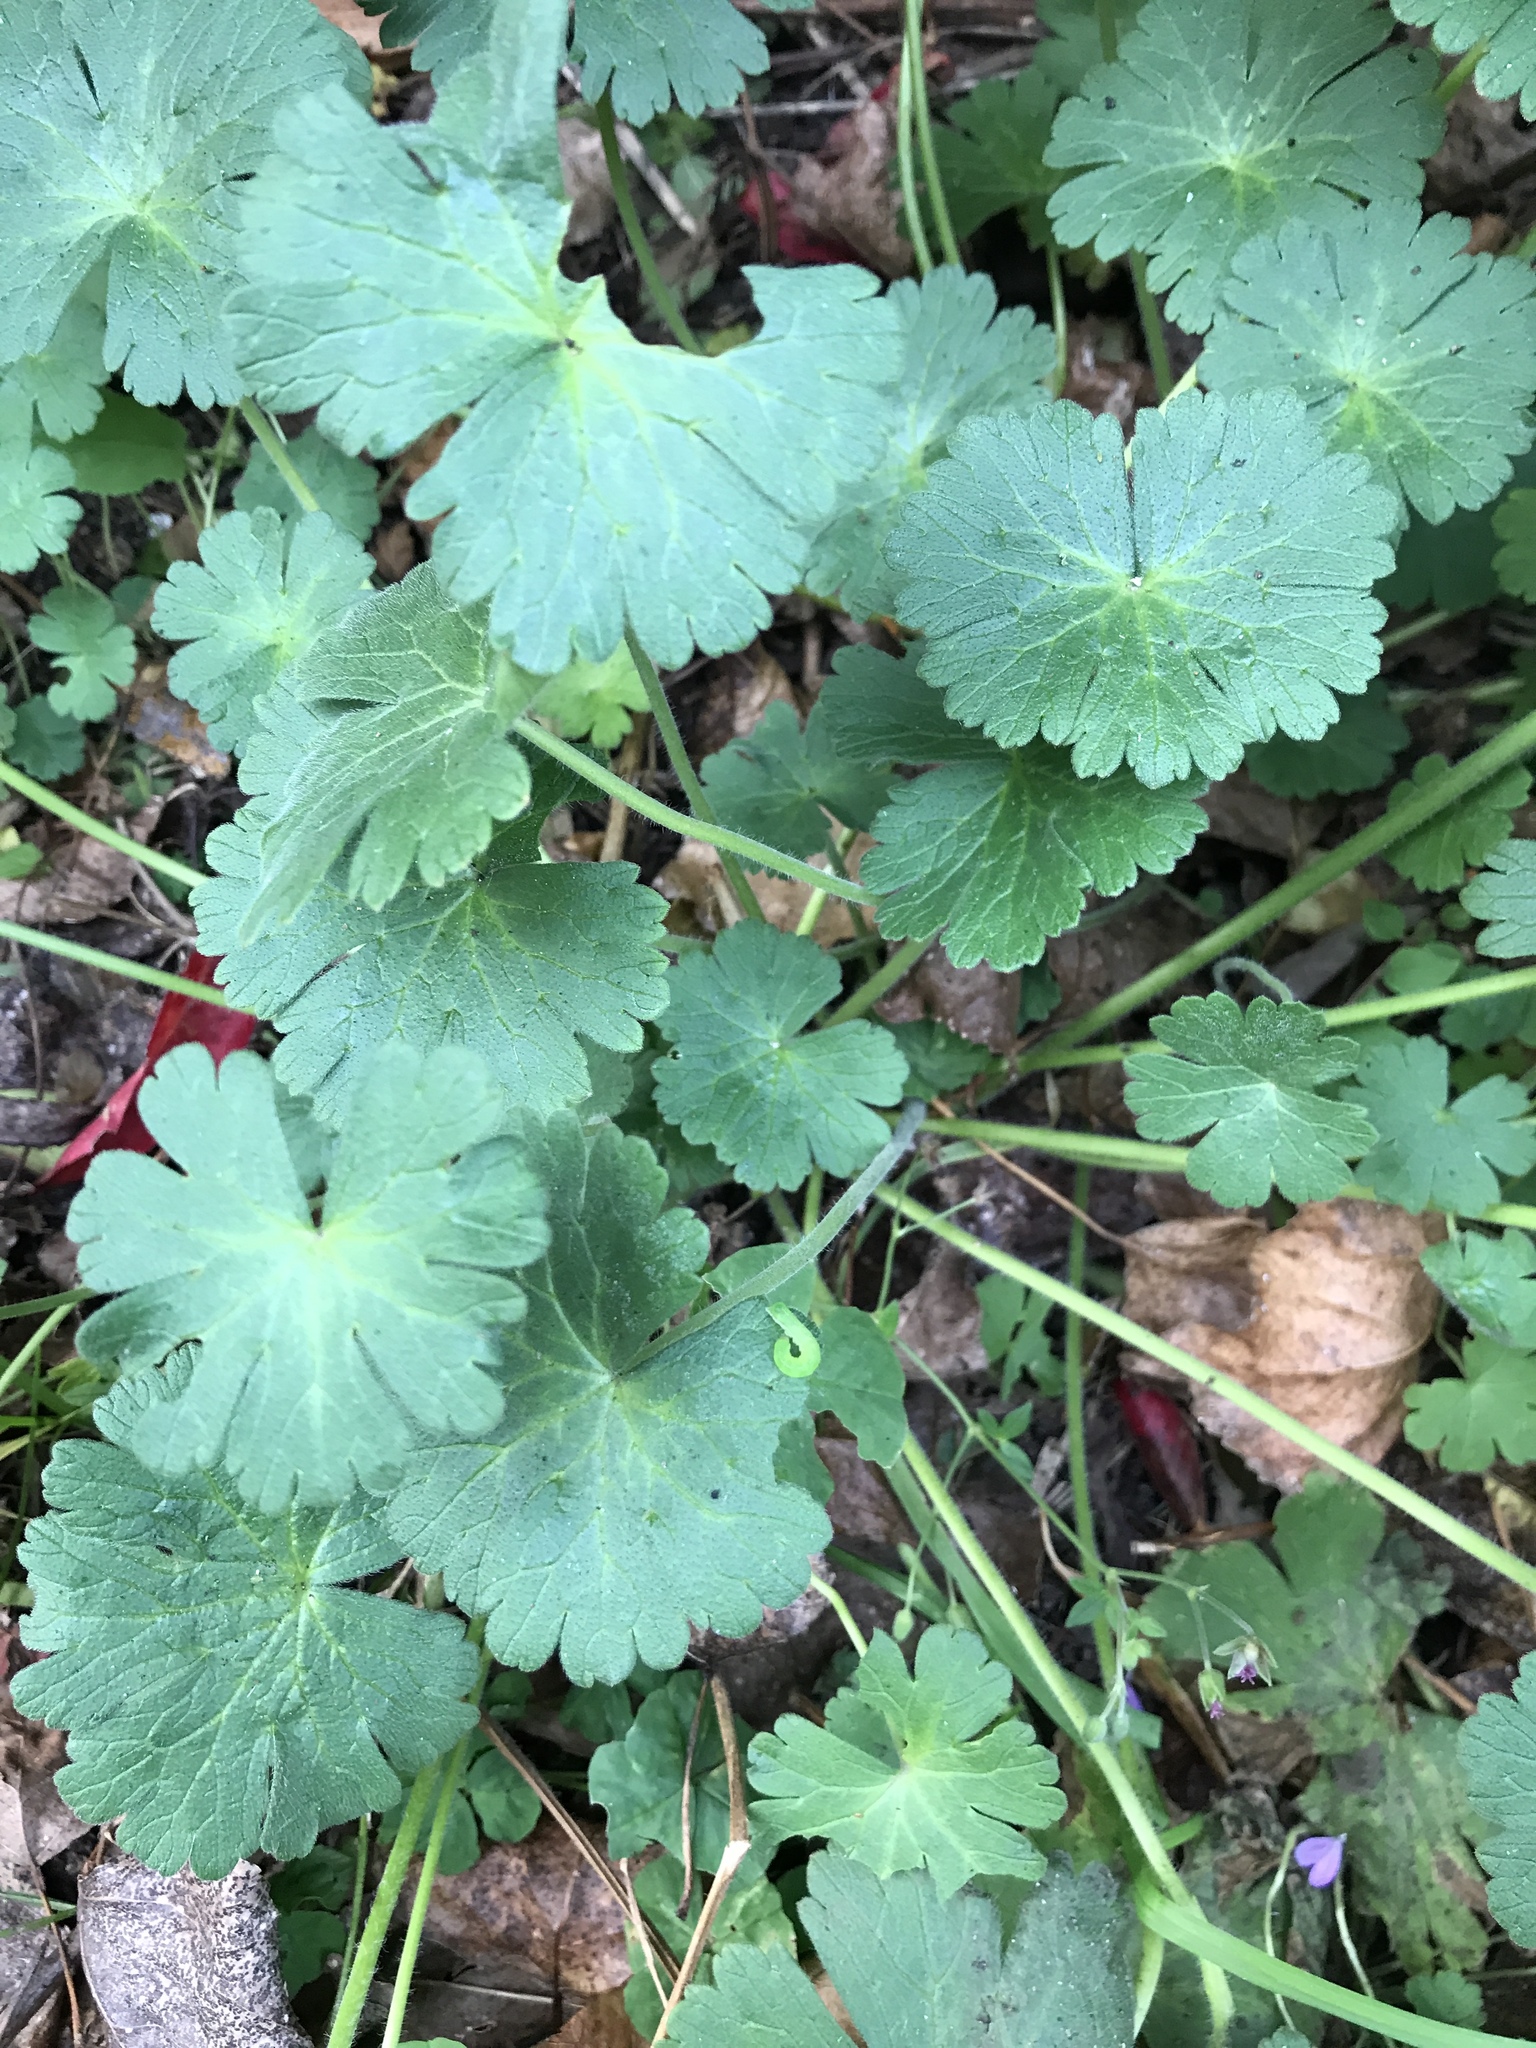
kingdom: Plantae
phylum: Tracheophyta
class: Magnoliopsida
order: Geraniales
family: Geraniaceae
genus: Geranium
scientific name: Geranium molle
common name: Dove's-foot crane's-bill
